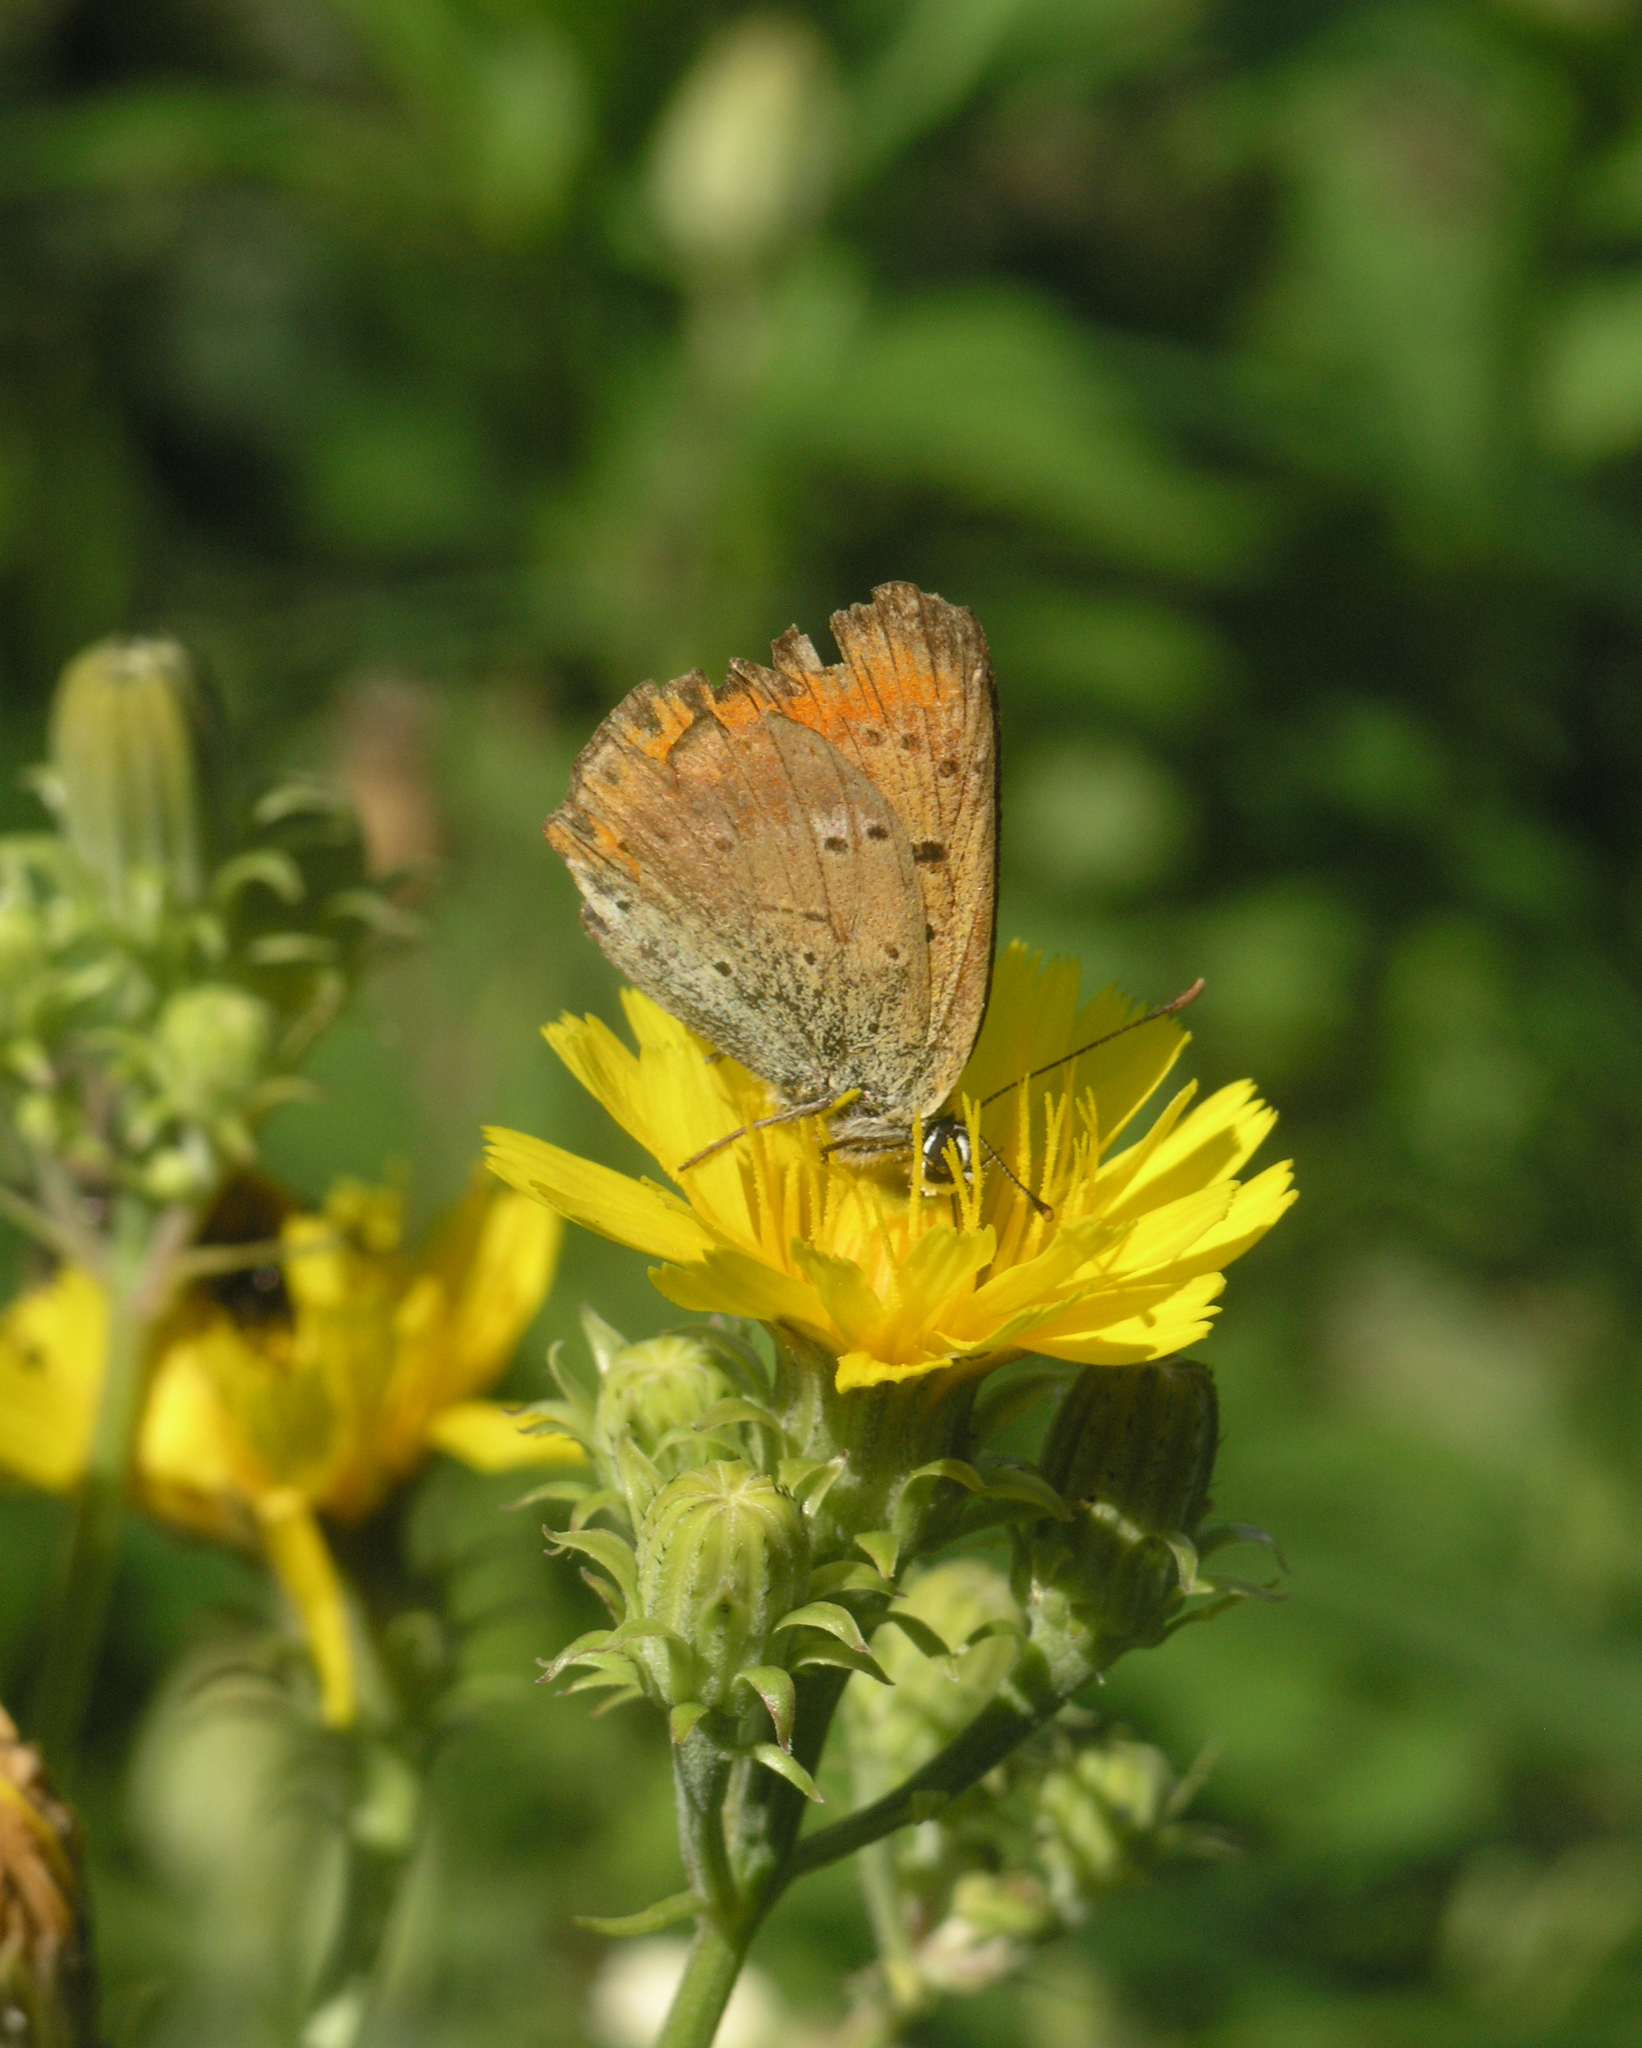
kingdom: Plantae
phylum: Tracheophyta
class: Magnoliopsida
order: Asterales
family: Asteraceae
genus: Picris
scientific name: Picris hieracioides
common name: Hawkweed oxtongue
